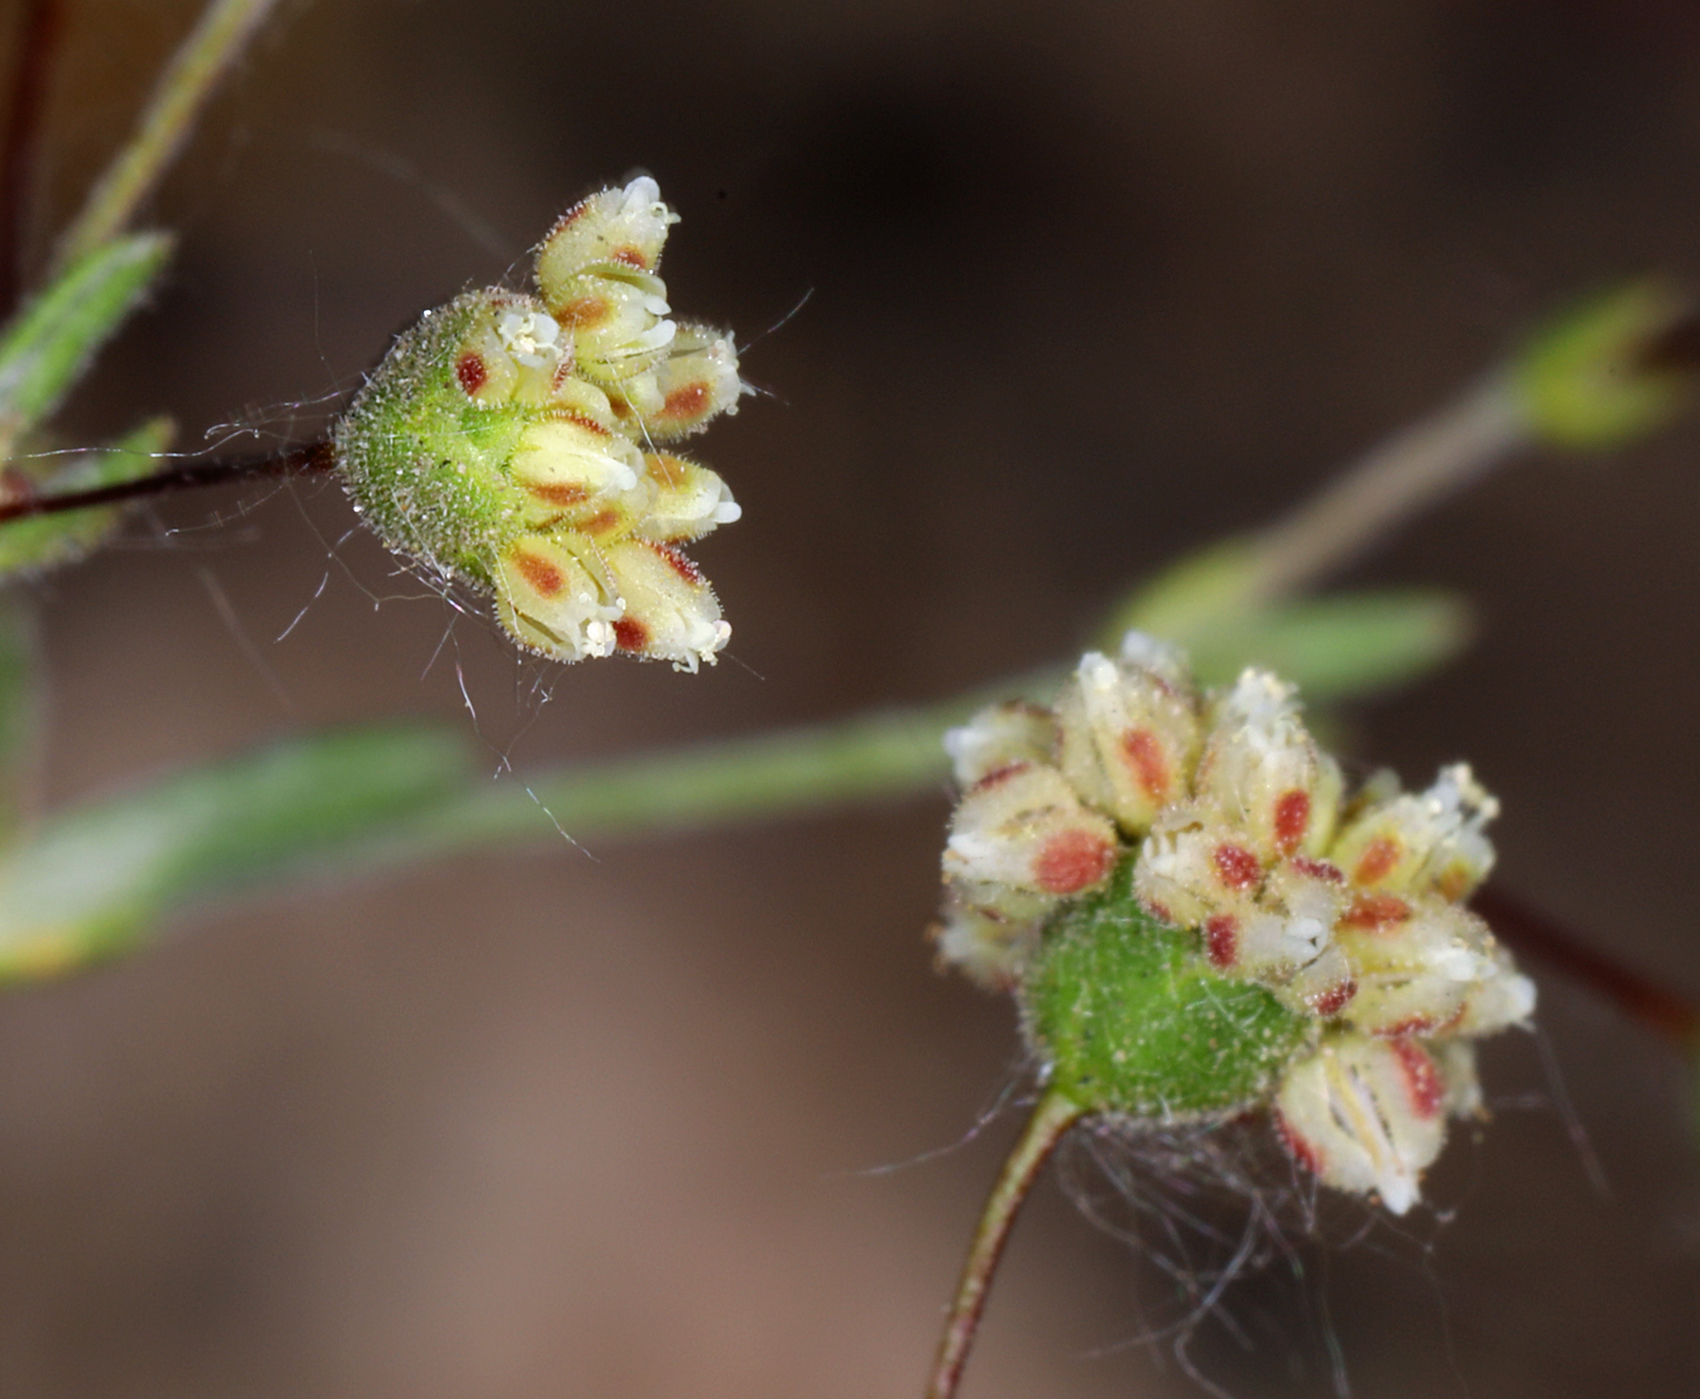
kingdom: Plantae
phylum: Tracheophyta
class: Magnoliopsida
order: Caryophyllales
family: Polygonaceae
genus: Eriogonum
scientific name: Eriogonum maculatum
